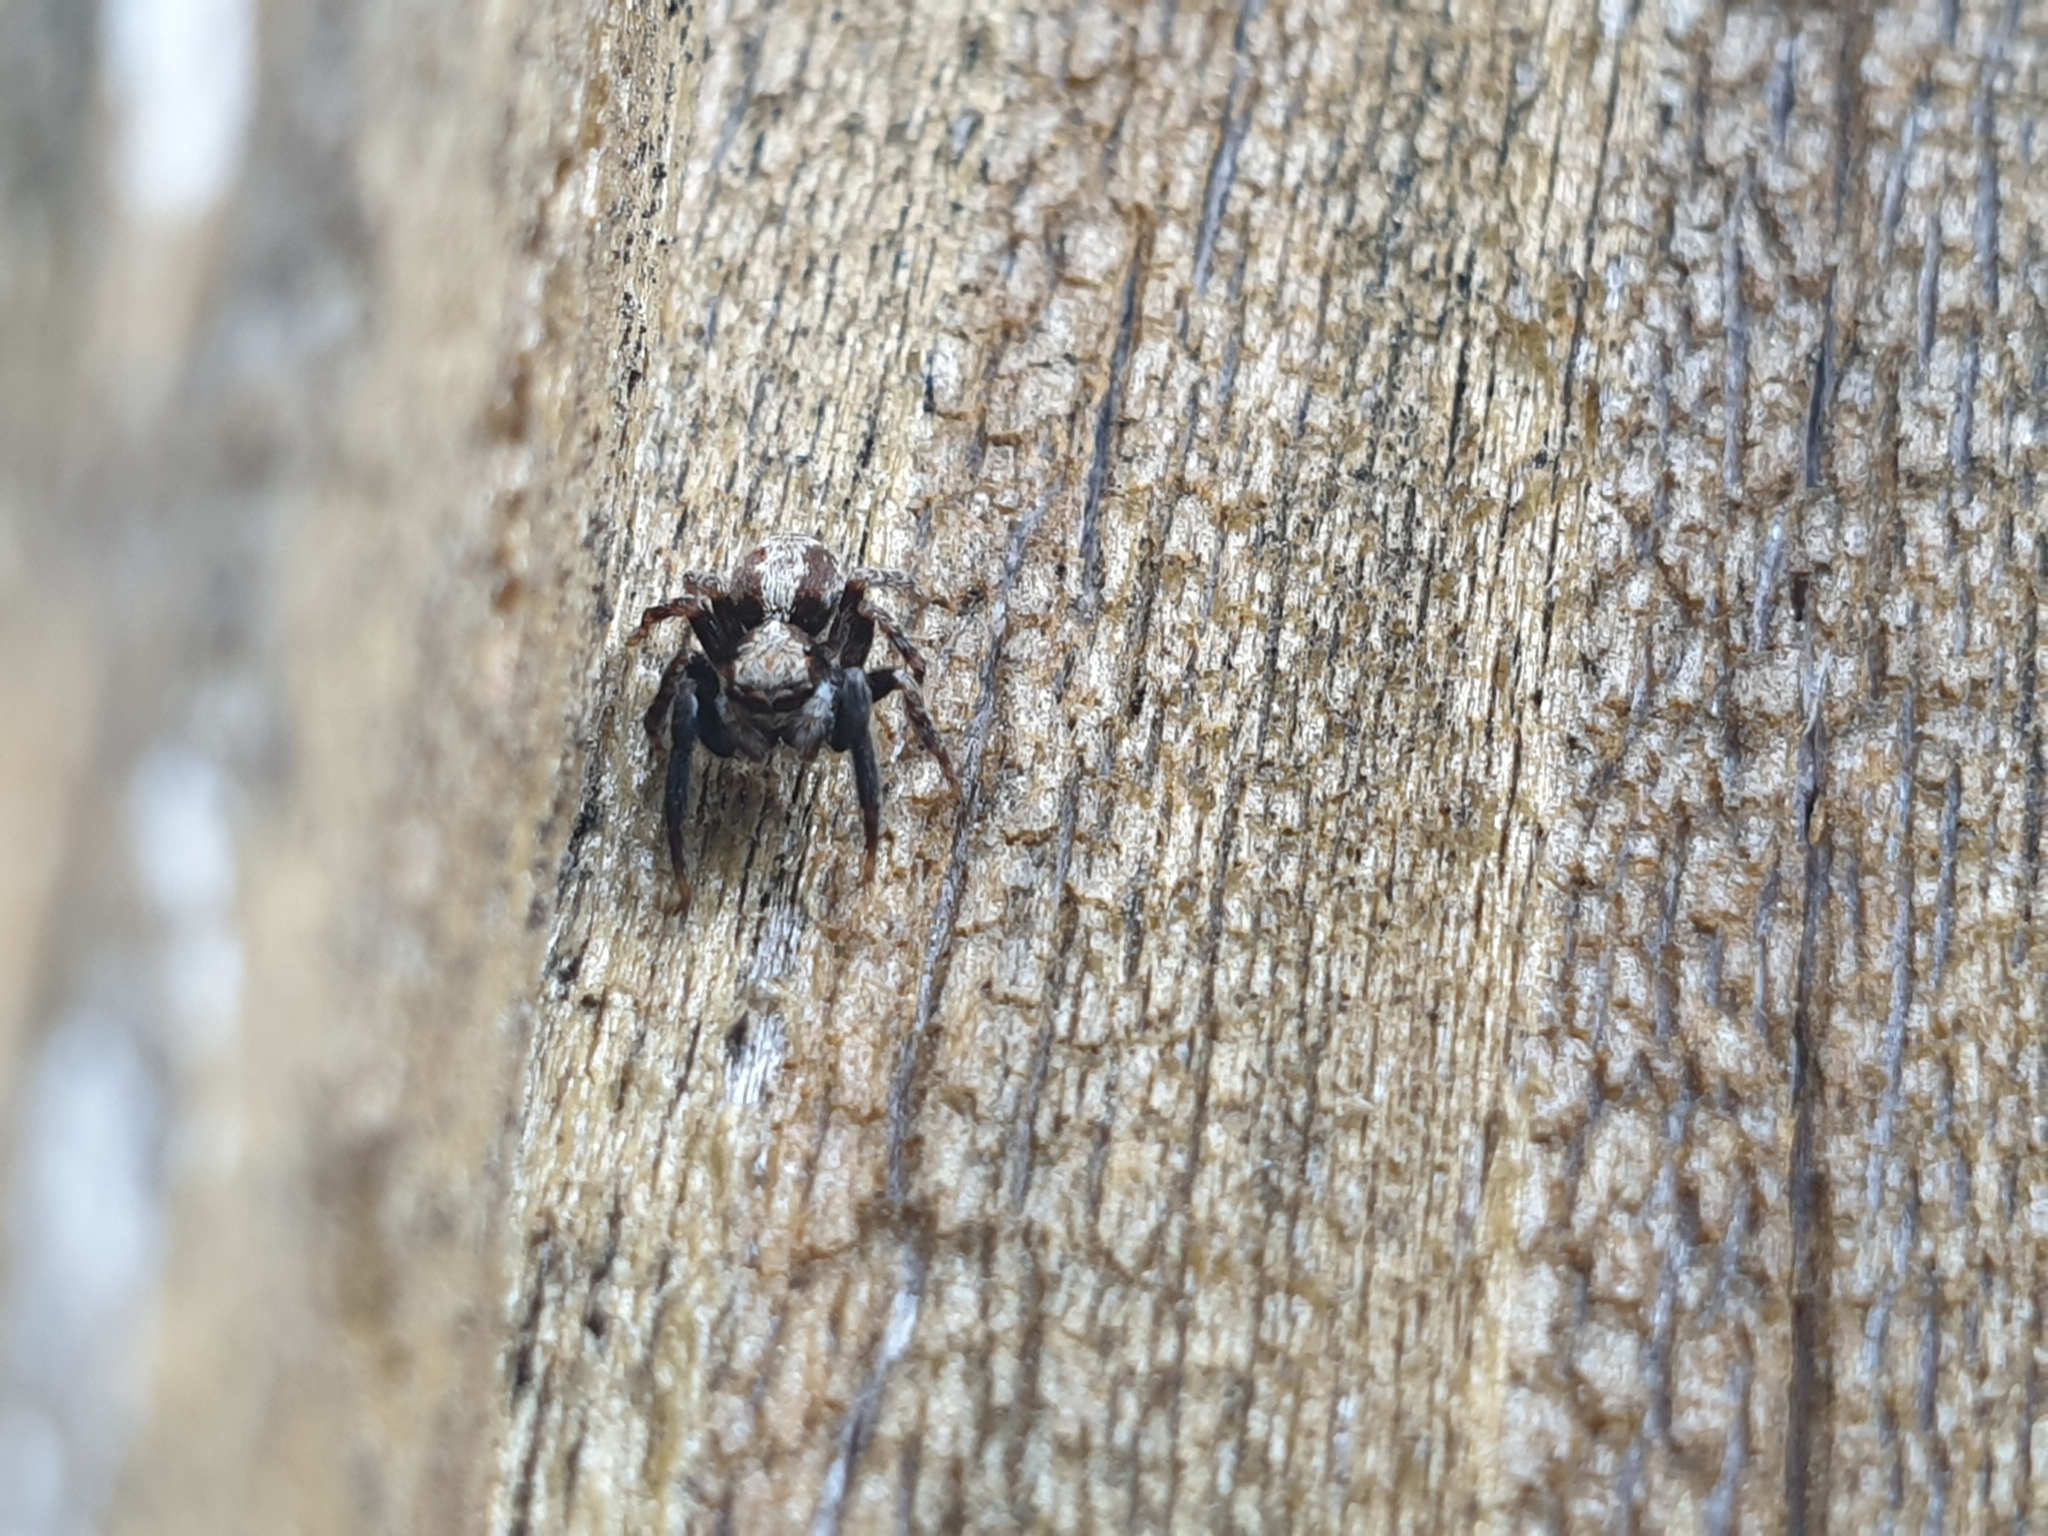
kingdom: Animalia
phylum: Arthropoda
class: Arachnida
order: Araneae
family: Salticidae
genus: Pseudeuophrys
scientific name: Pseudeuophrys lanigera
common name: Jumping spider
